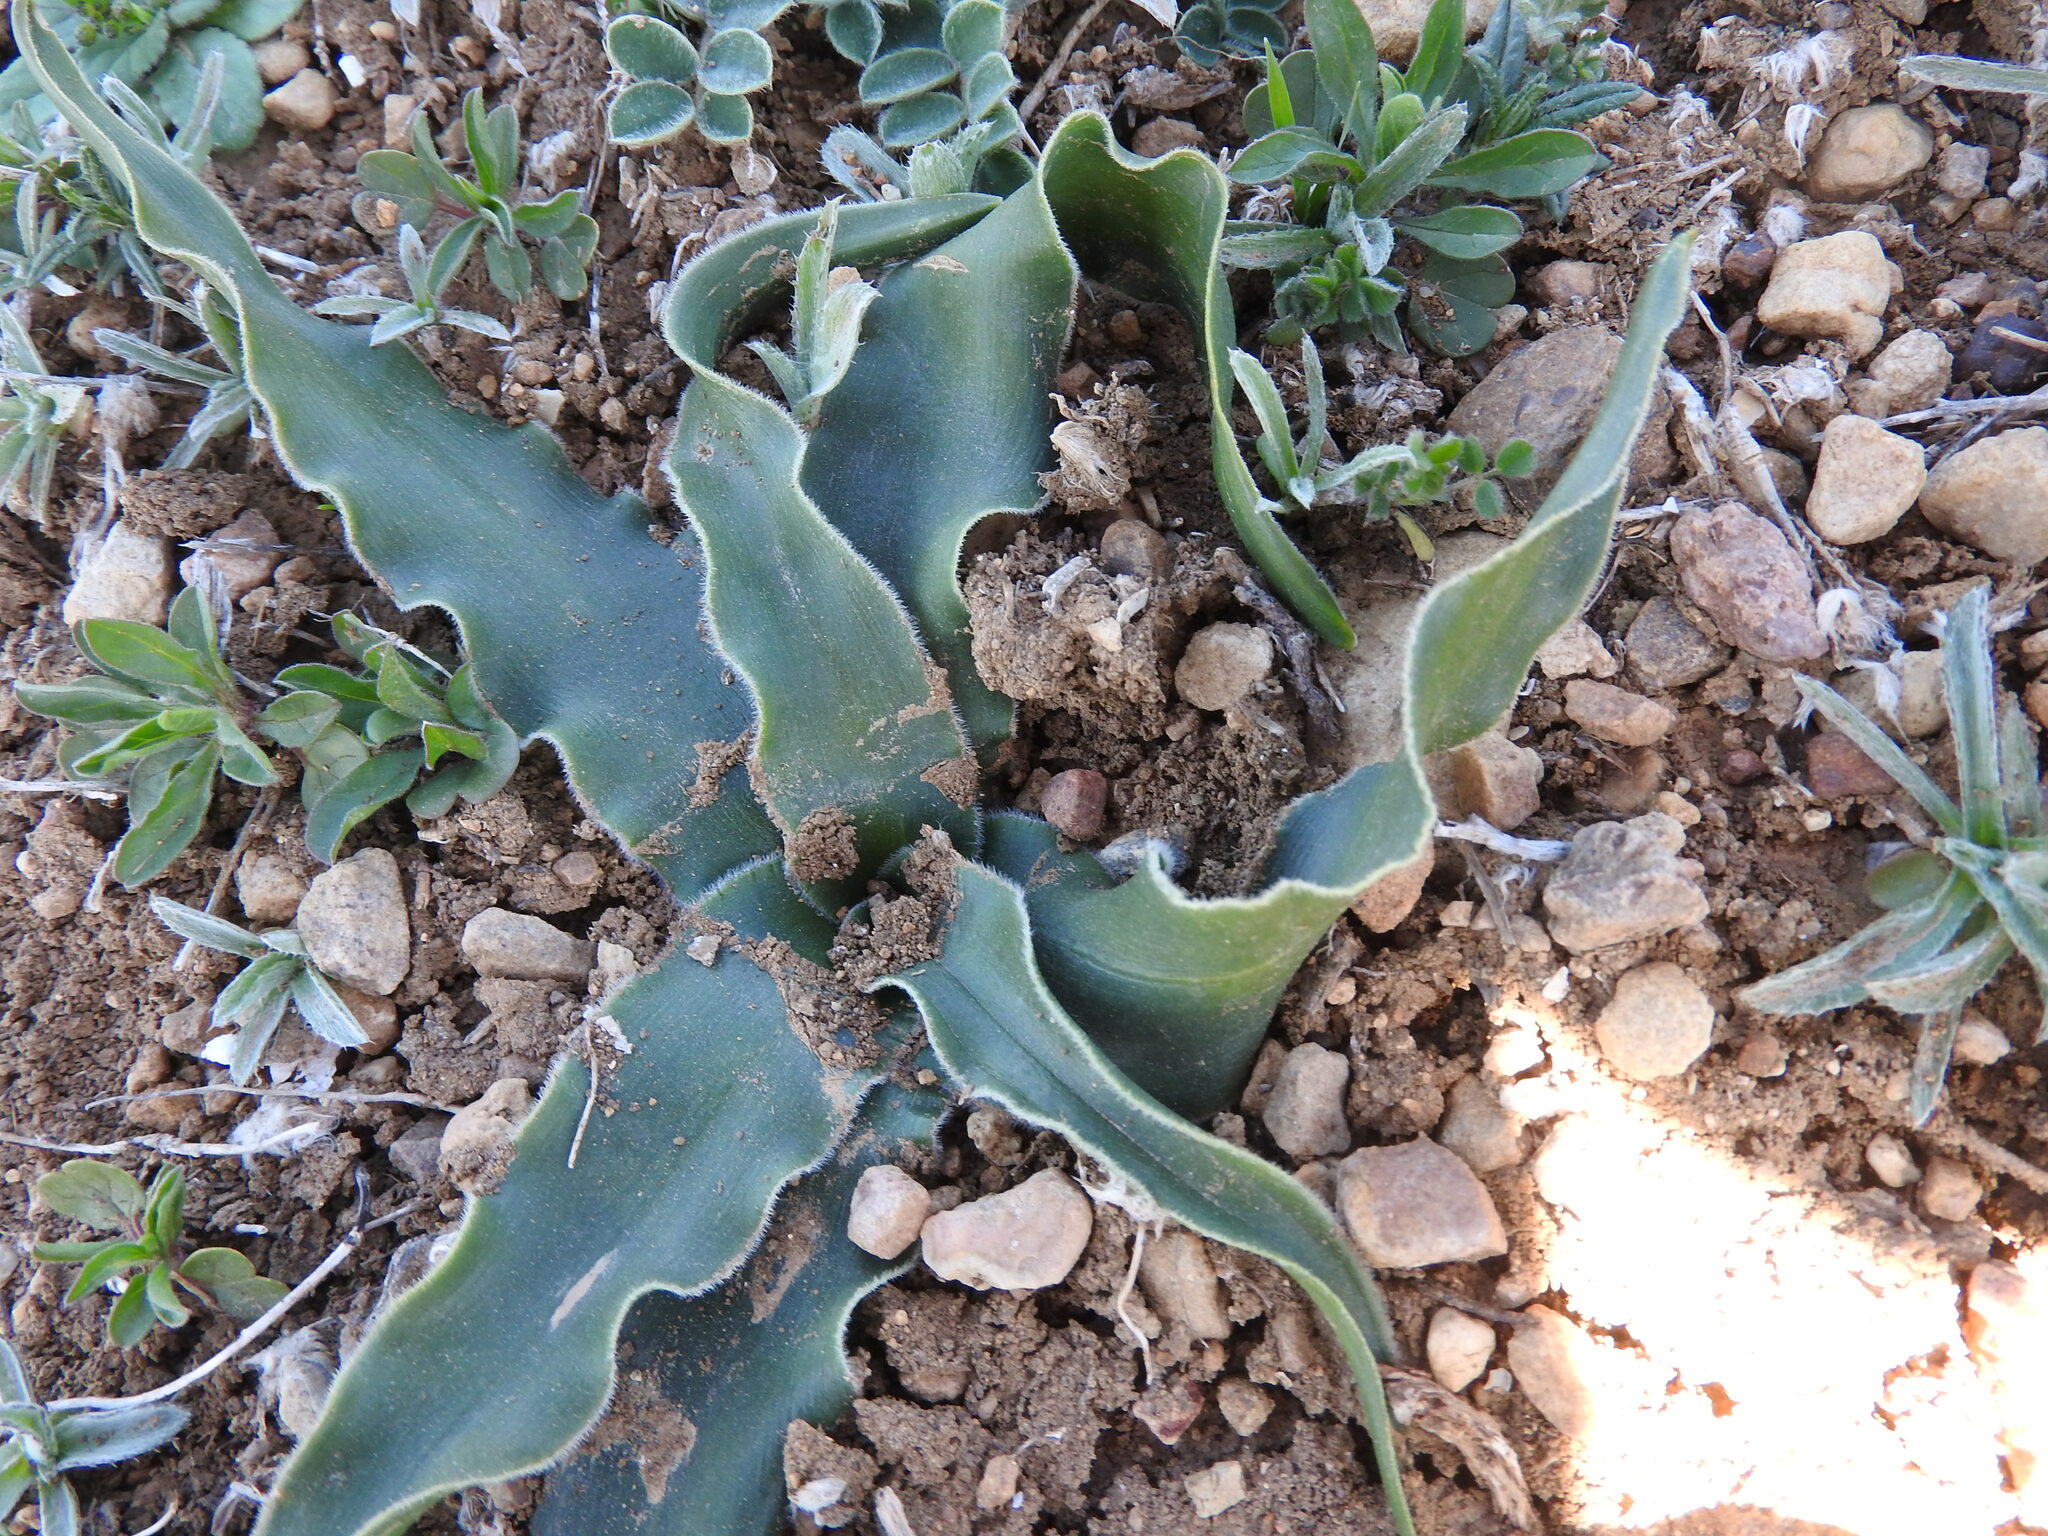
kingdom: Plantae
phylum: Tracheophyta
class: Liliopsida
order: Asparagales
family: Asparagaceae
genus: Scilla
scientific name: Scilla peruviana
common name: Portuguese squill
